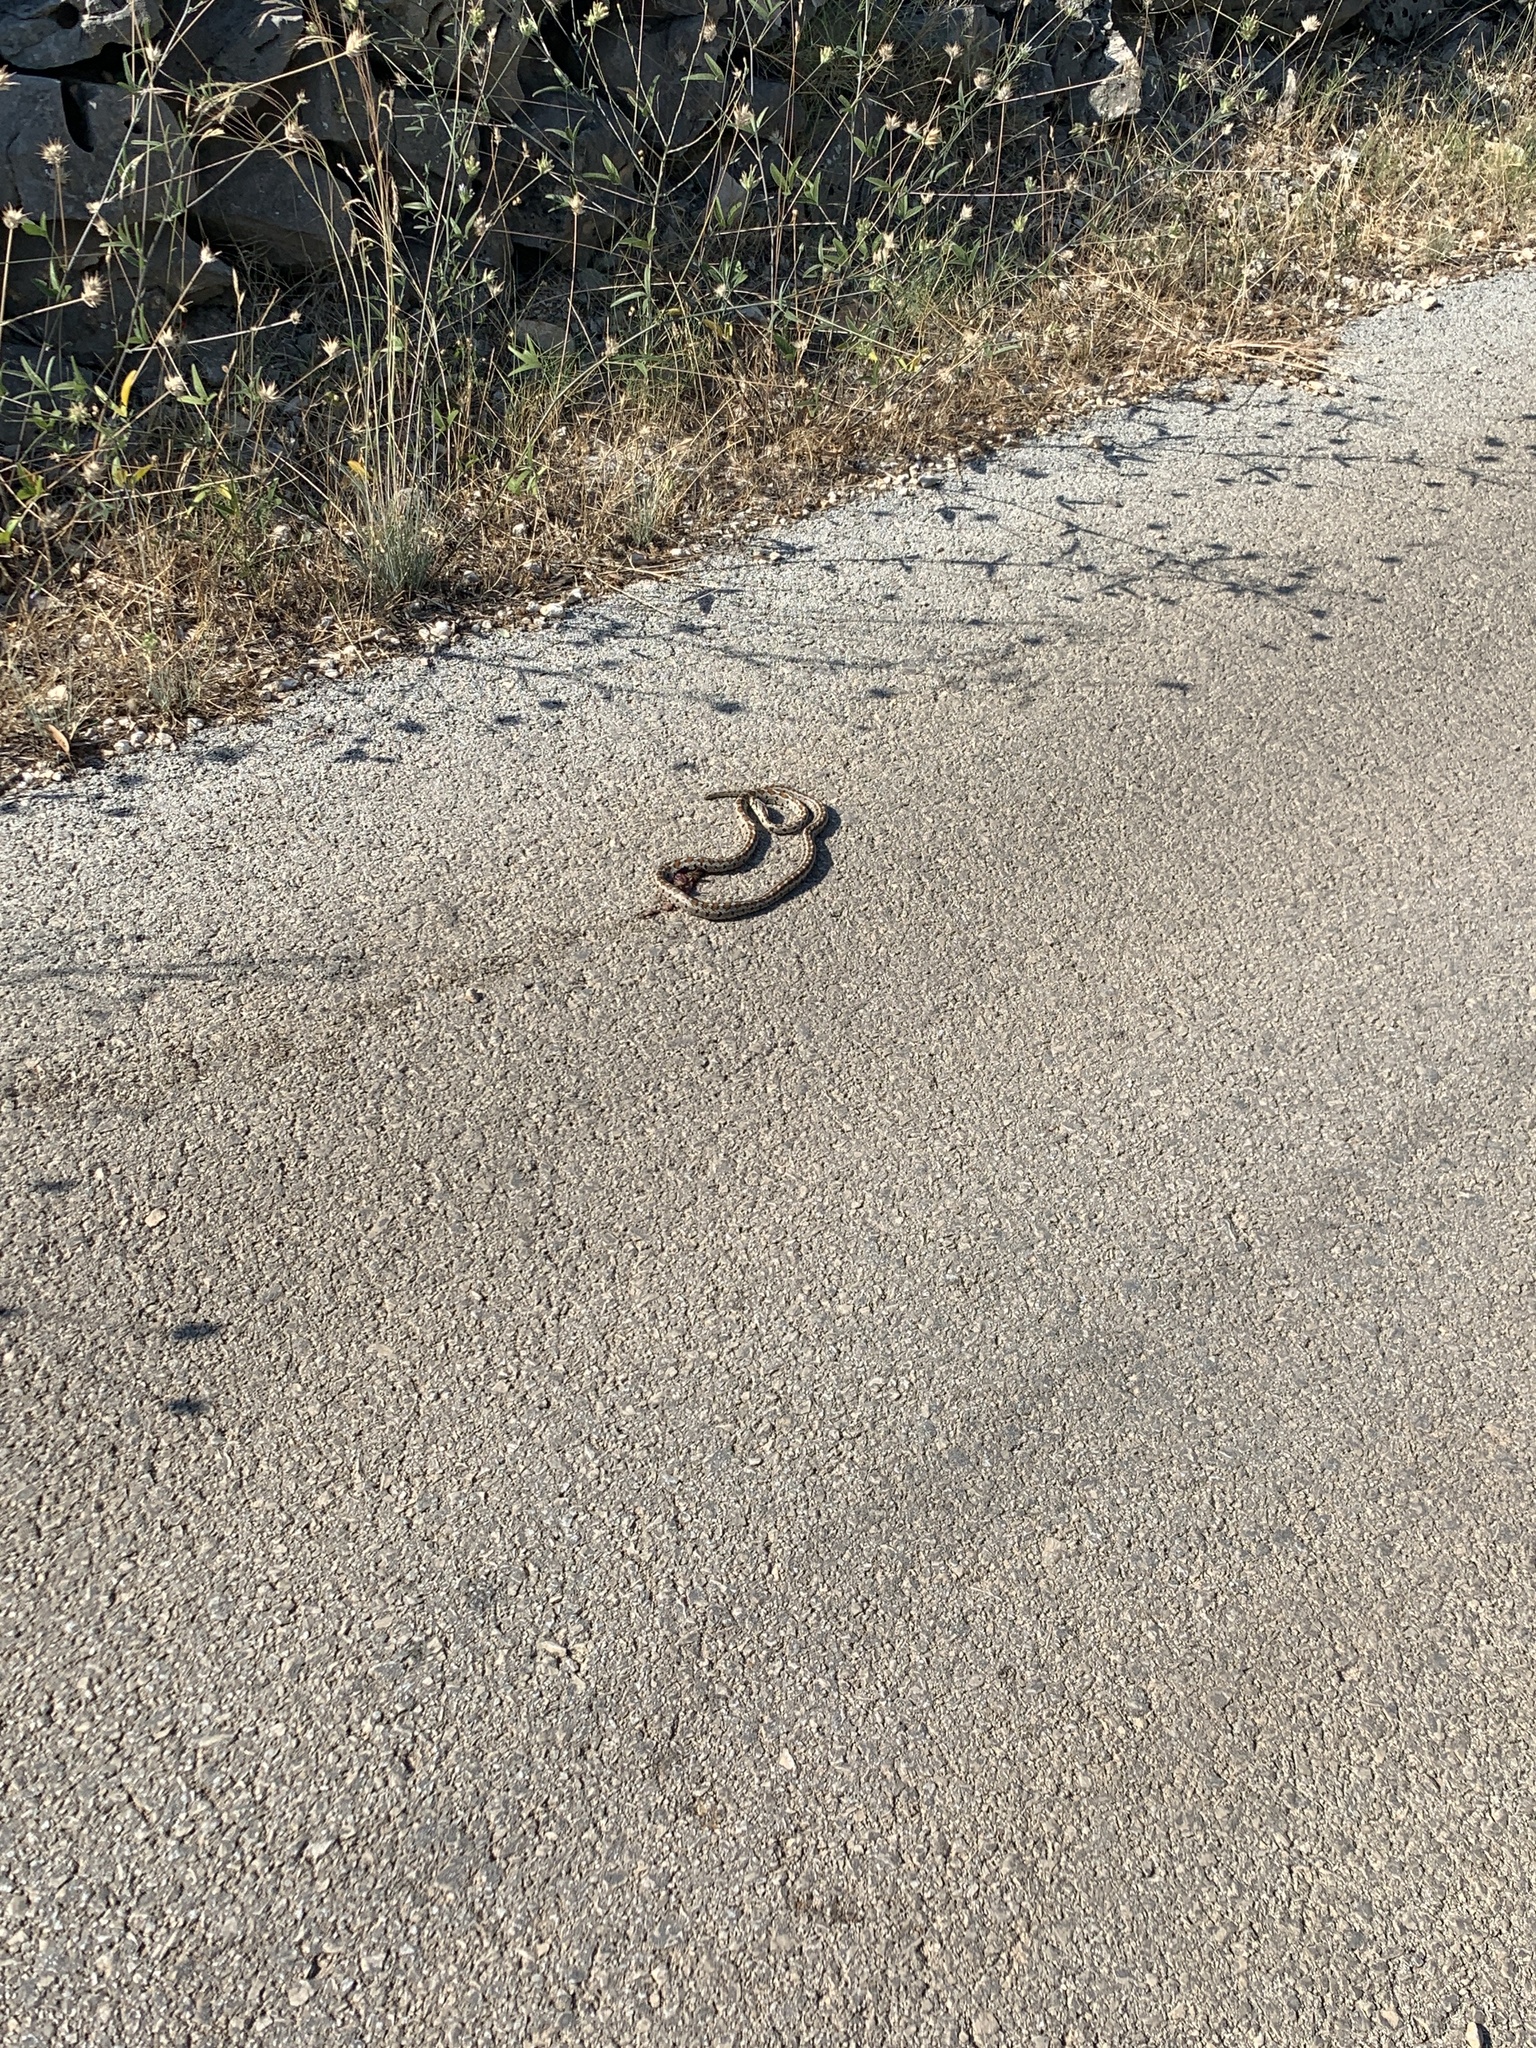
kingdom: Animalia
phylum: Chordata
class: Squamata
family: Colubridae
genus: Zamenis
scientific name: Zamenis situla
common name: European ratsnake
